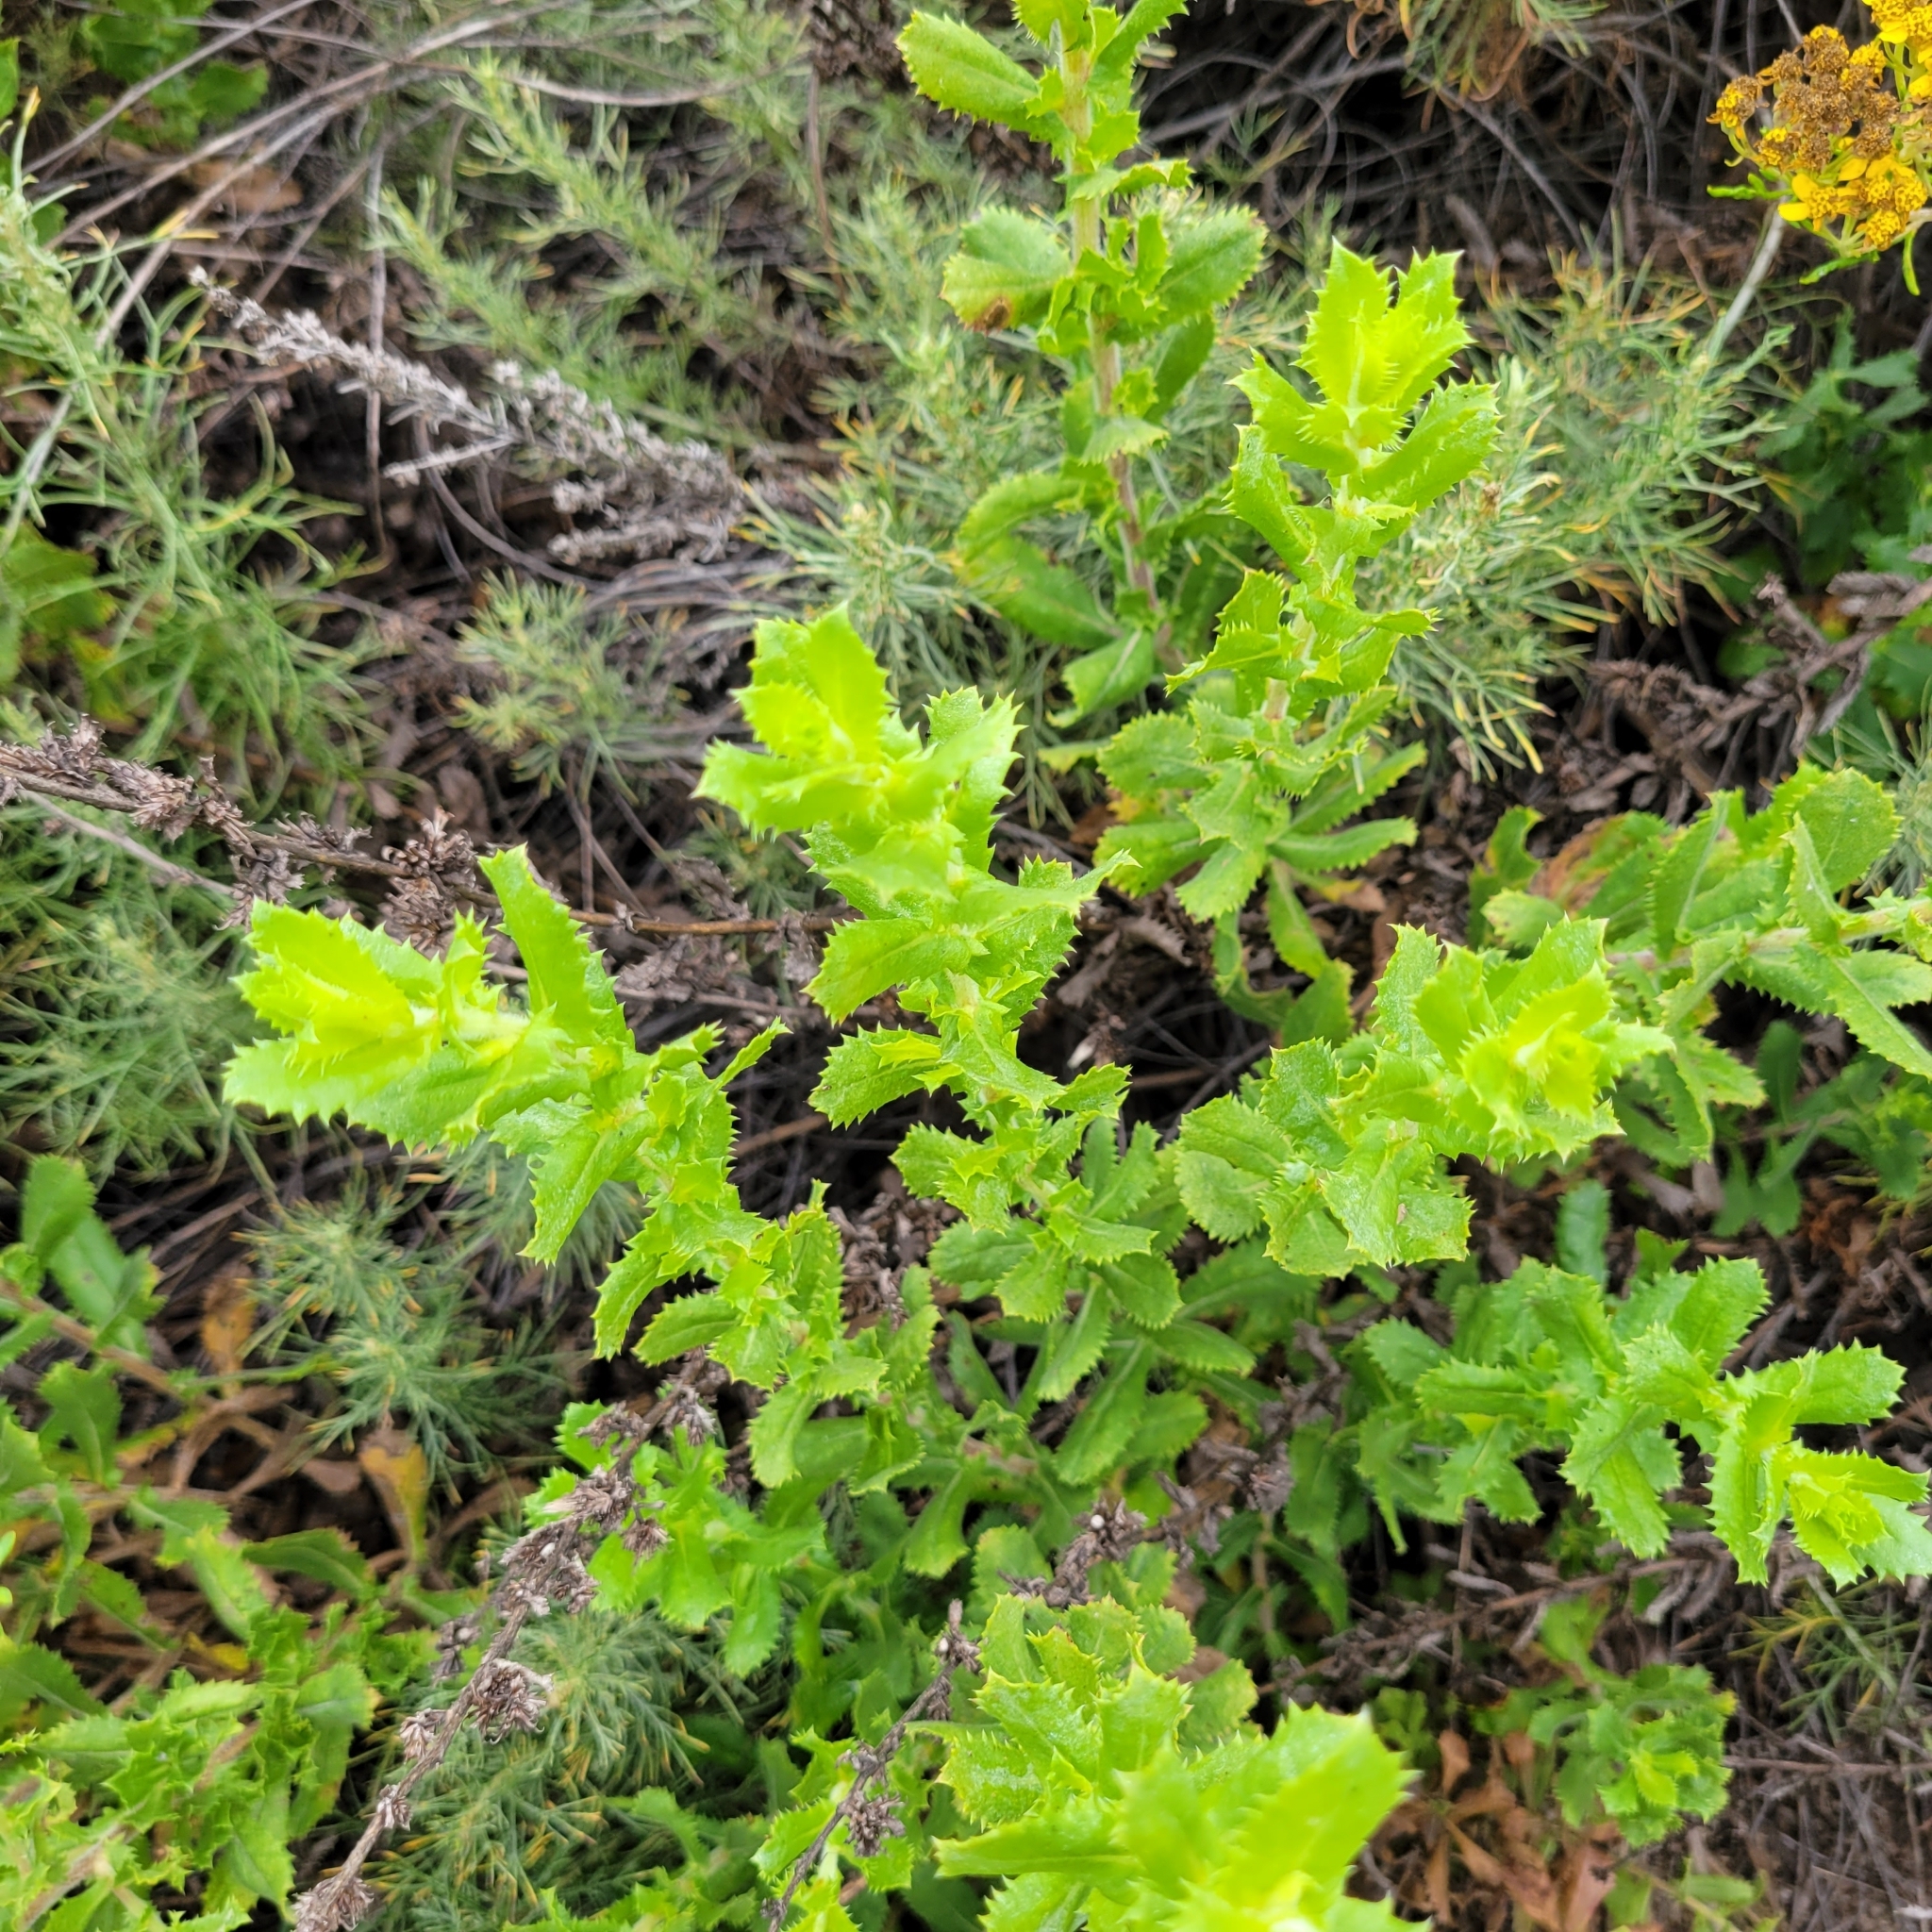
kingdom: Plantae
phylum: Tracheophyta
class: Magnoliopsida
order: Asterales
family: Asteraceae
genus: Hazardia
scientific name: Hazardia squarrosa
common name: Saw-tooth goldenbush
